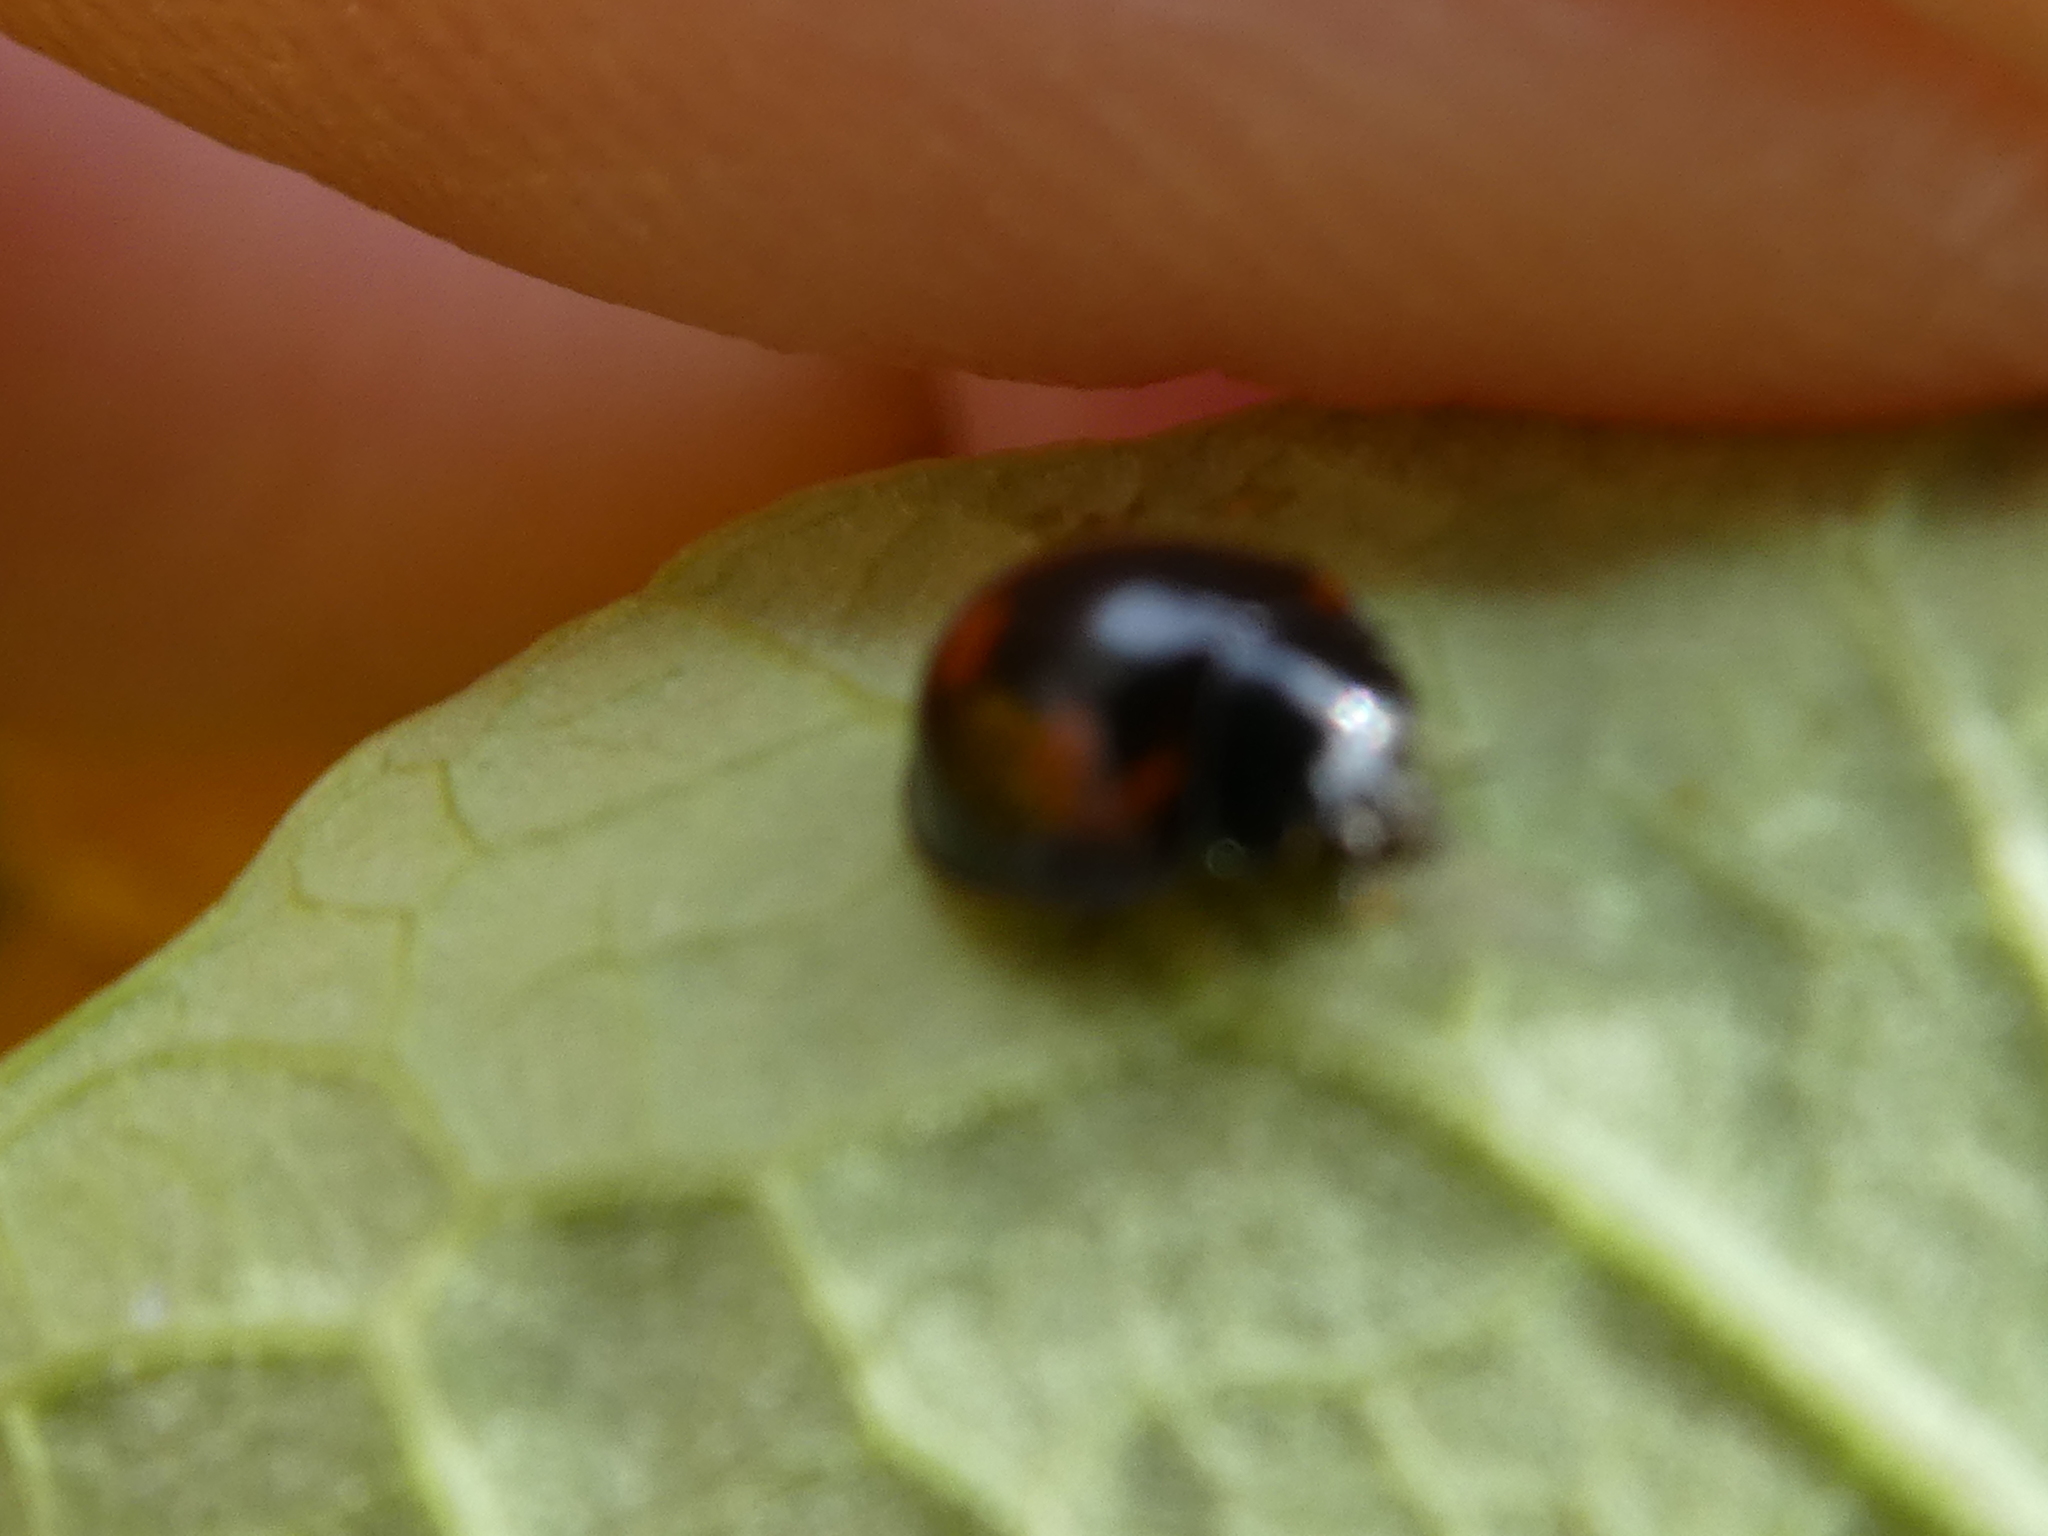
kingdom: Animalia
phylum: Arthropoda
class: Insecta
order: Coleoptera
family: Coccinellidae
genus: Brumus
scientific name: Brumus quadripustulatus
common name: Ladybird beetle
